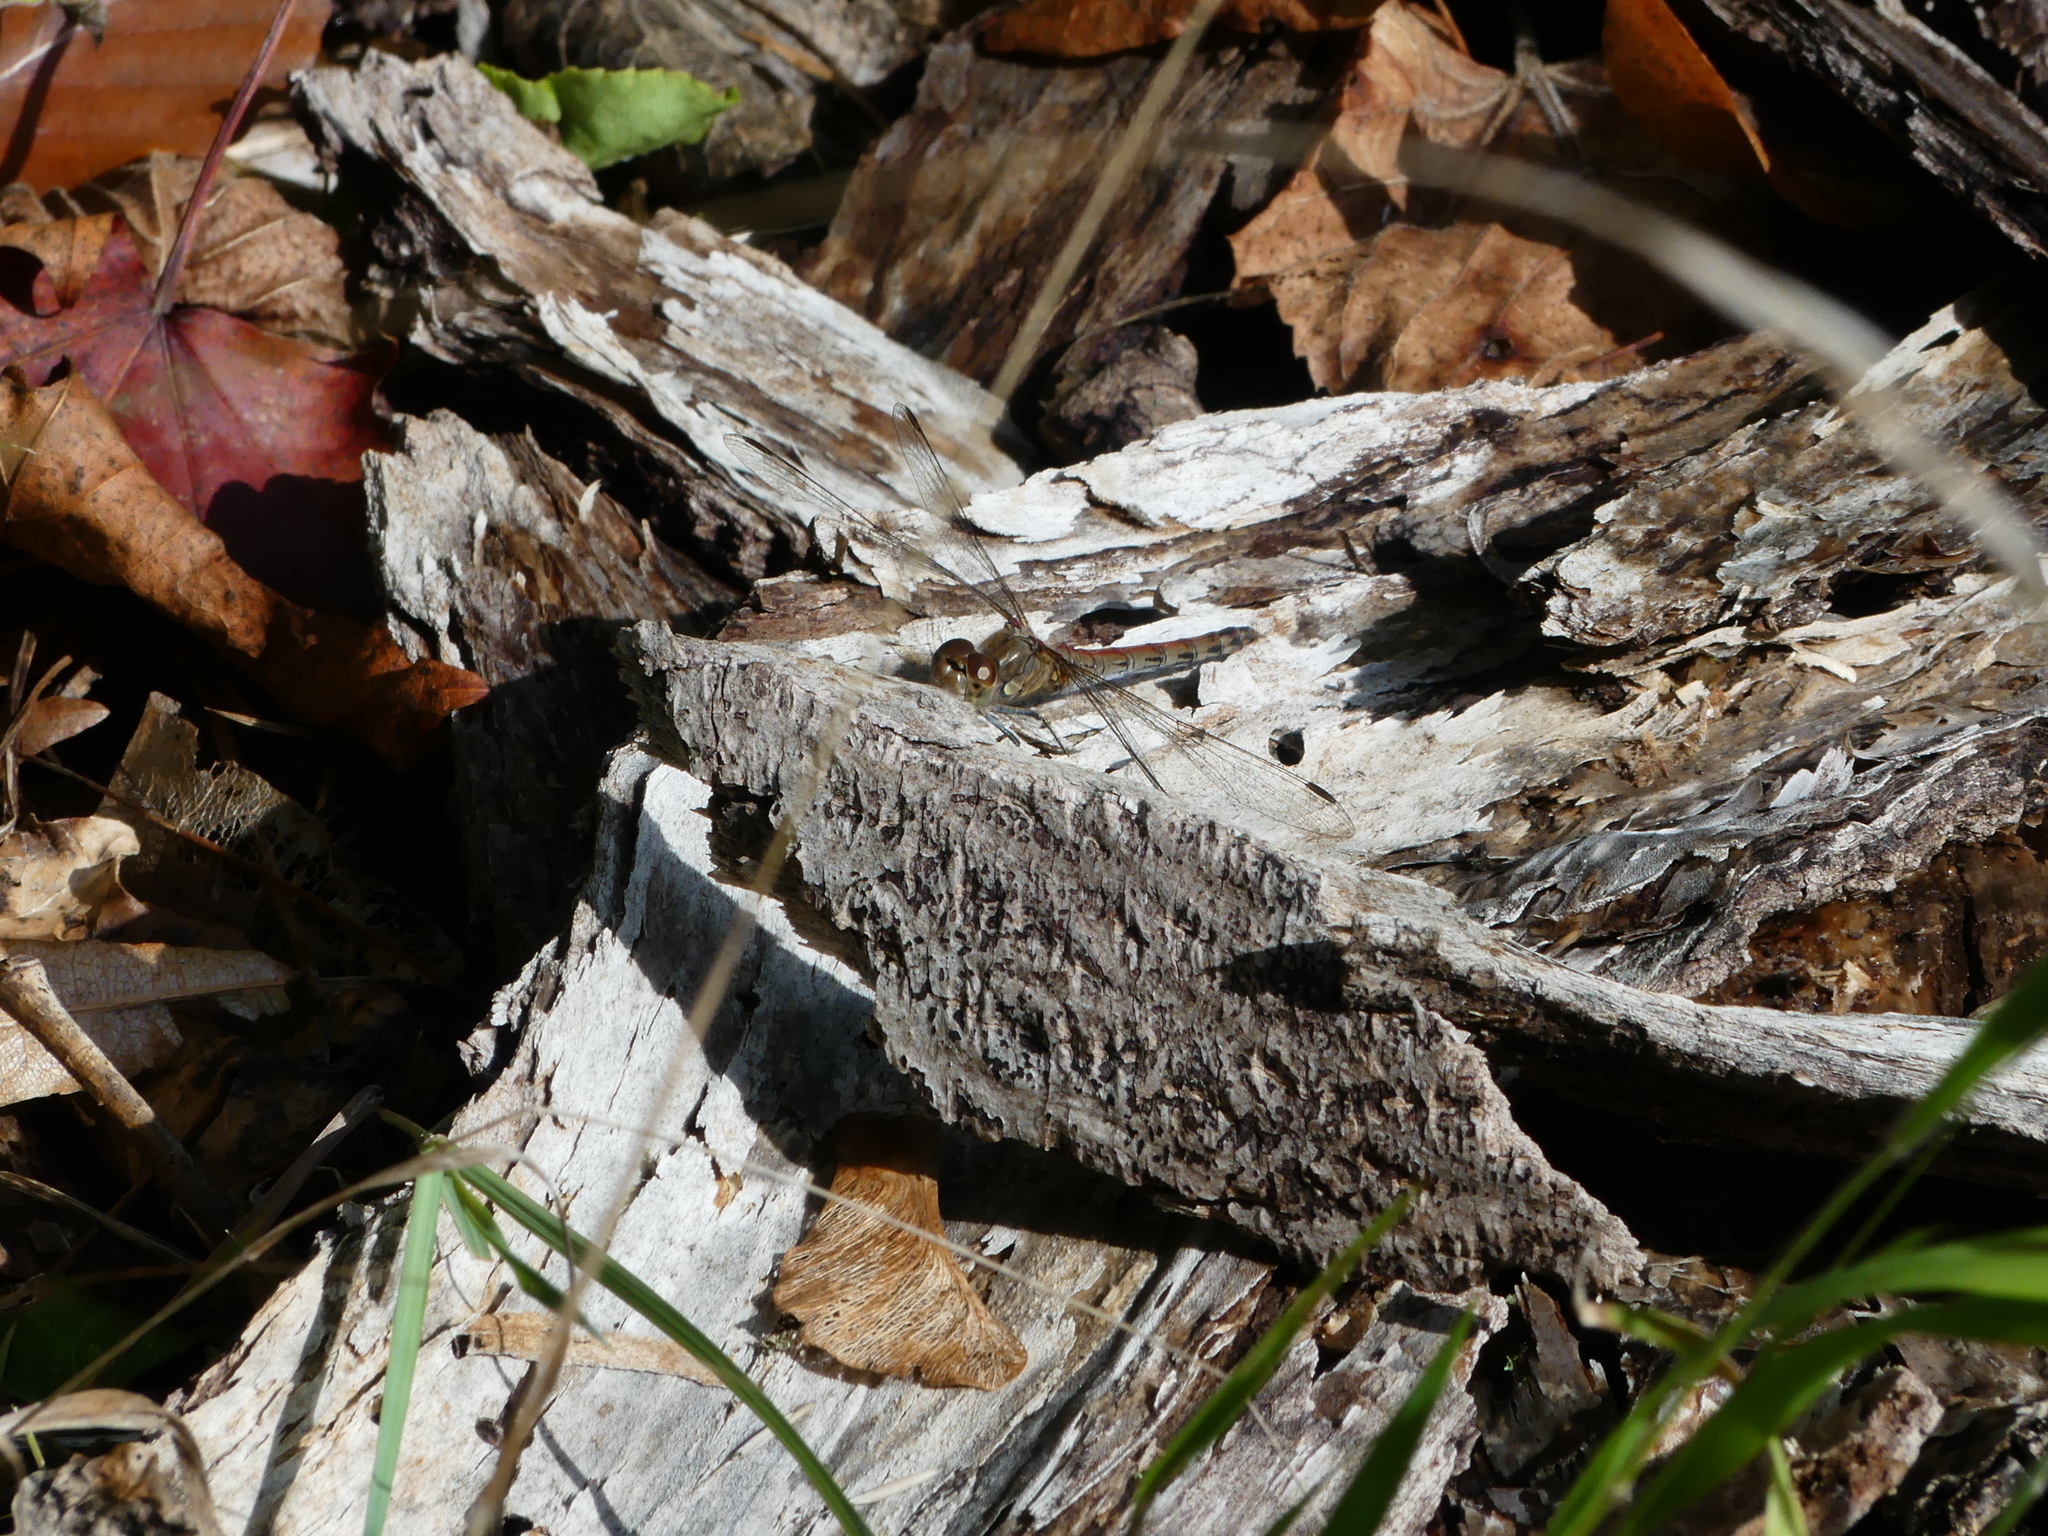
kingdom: Animalia
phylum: Arthropoda
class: Insecta
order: Odonata
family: Libellulidae
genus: Sympetrum
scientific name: Sympetrum striolatum
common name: Common darter
